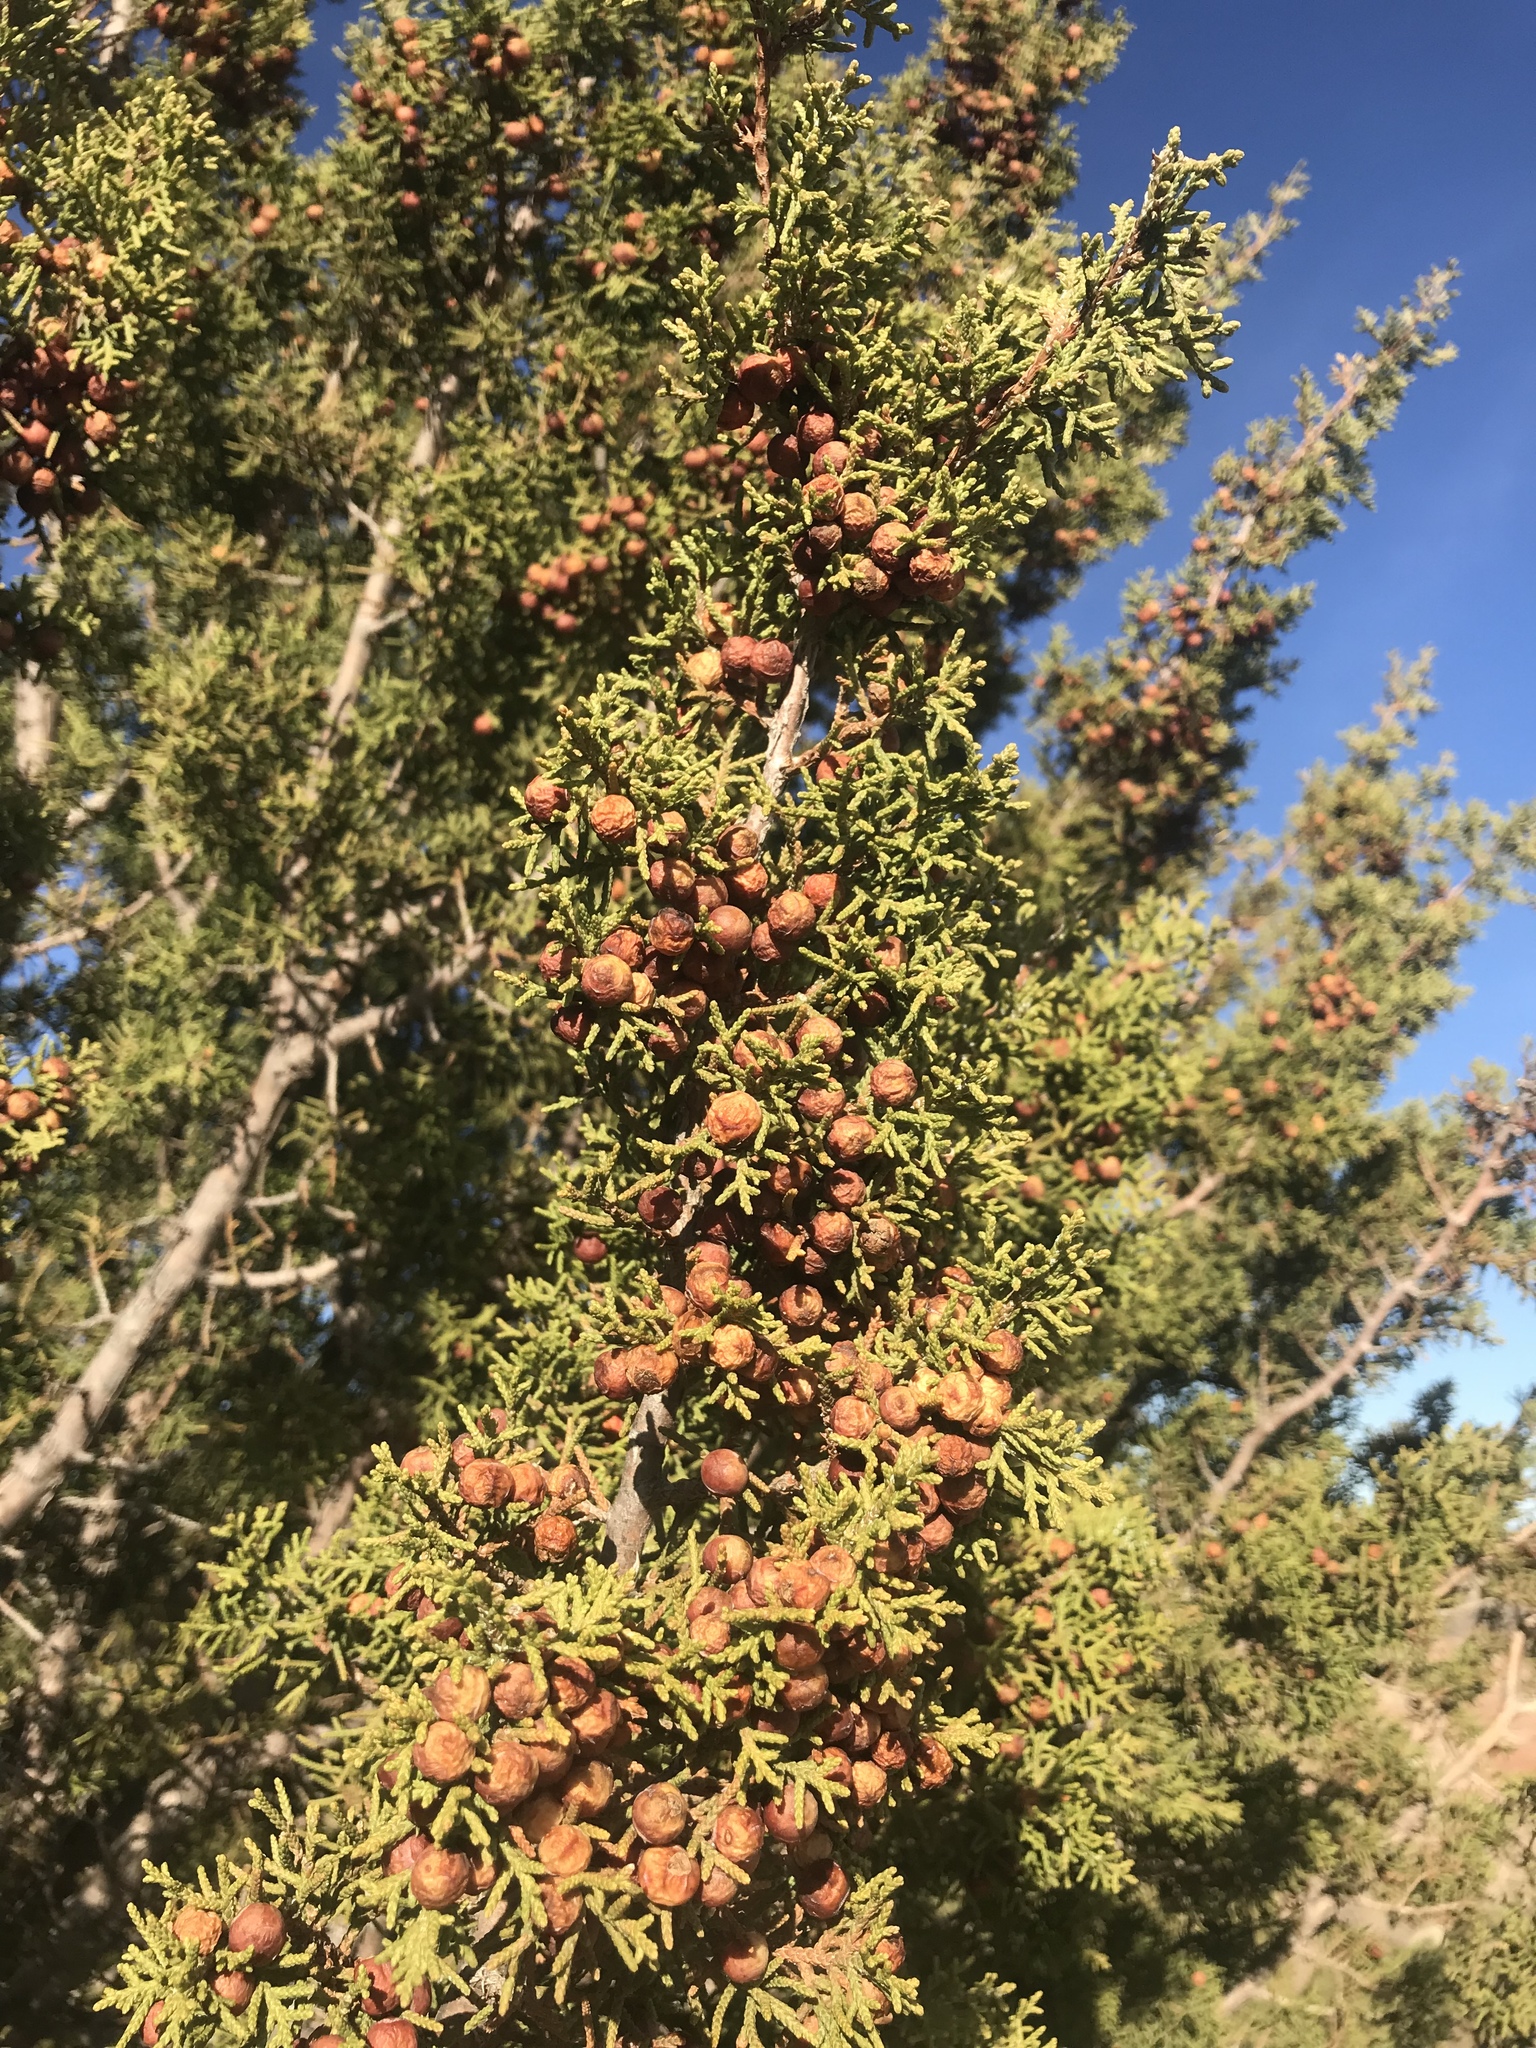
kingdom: Plantae
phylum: Tracheophyta
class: Pinopsida
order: Pinales
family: Cupressaceae
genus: Juniperus
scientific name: Juniperus pinchotii
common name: Pinchot juniper
